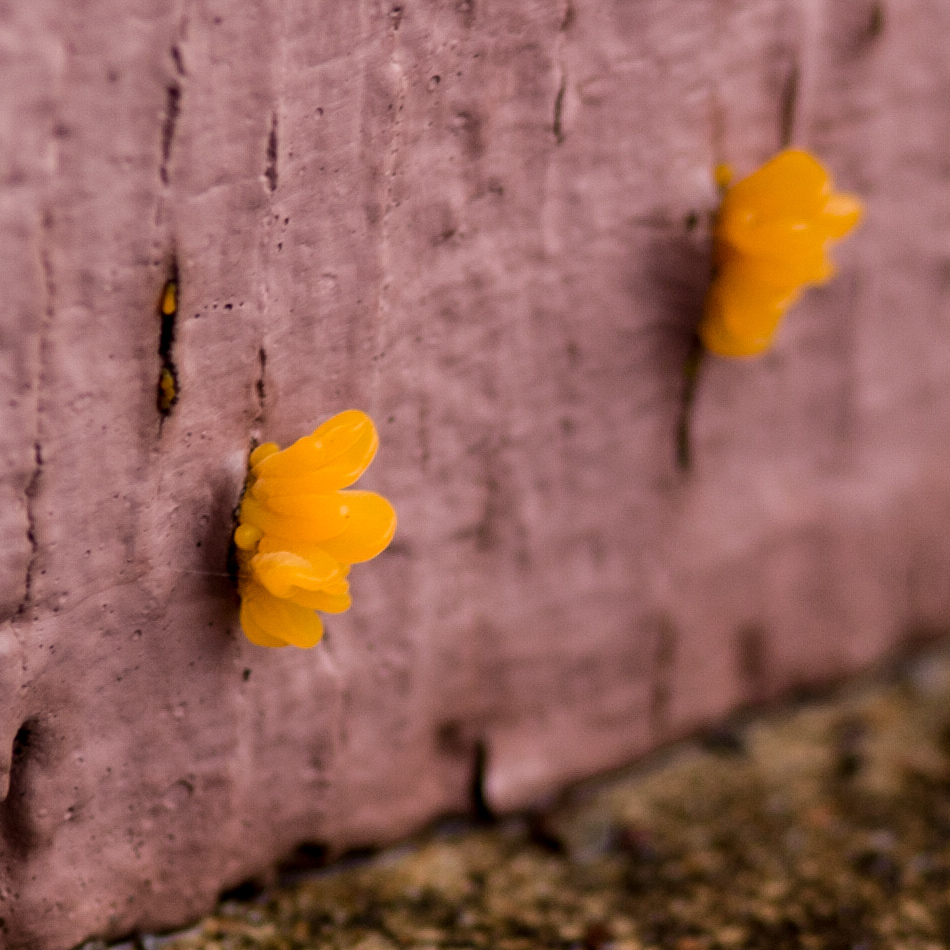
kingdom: Fungi
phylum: Basidiomycota
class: Dacrymycetes
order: Dacrymycetales
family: Dacrymycetaceae
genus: Dacrymyces
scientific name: Dacrymyces spathularius
